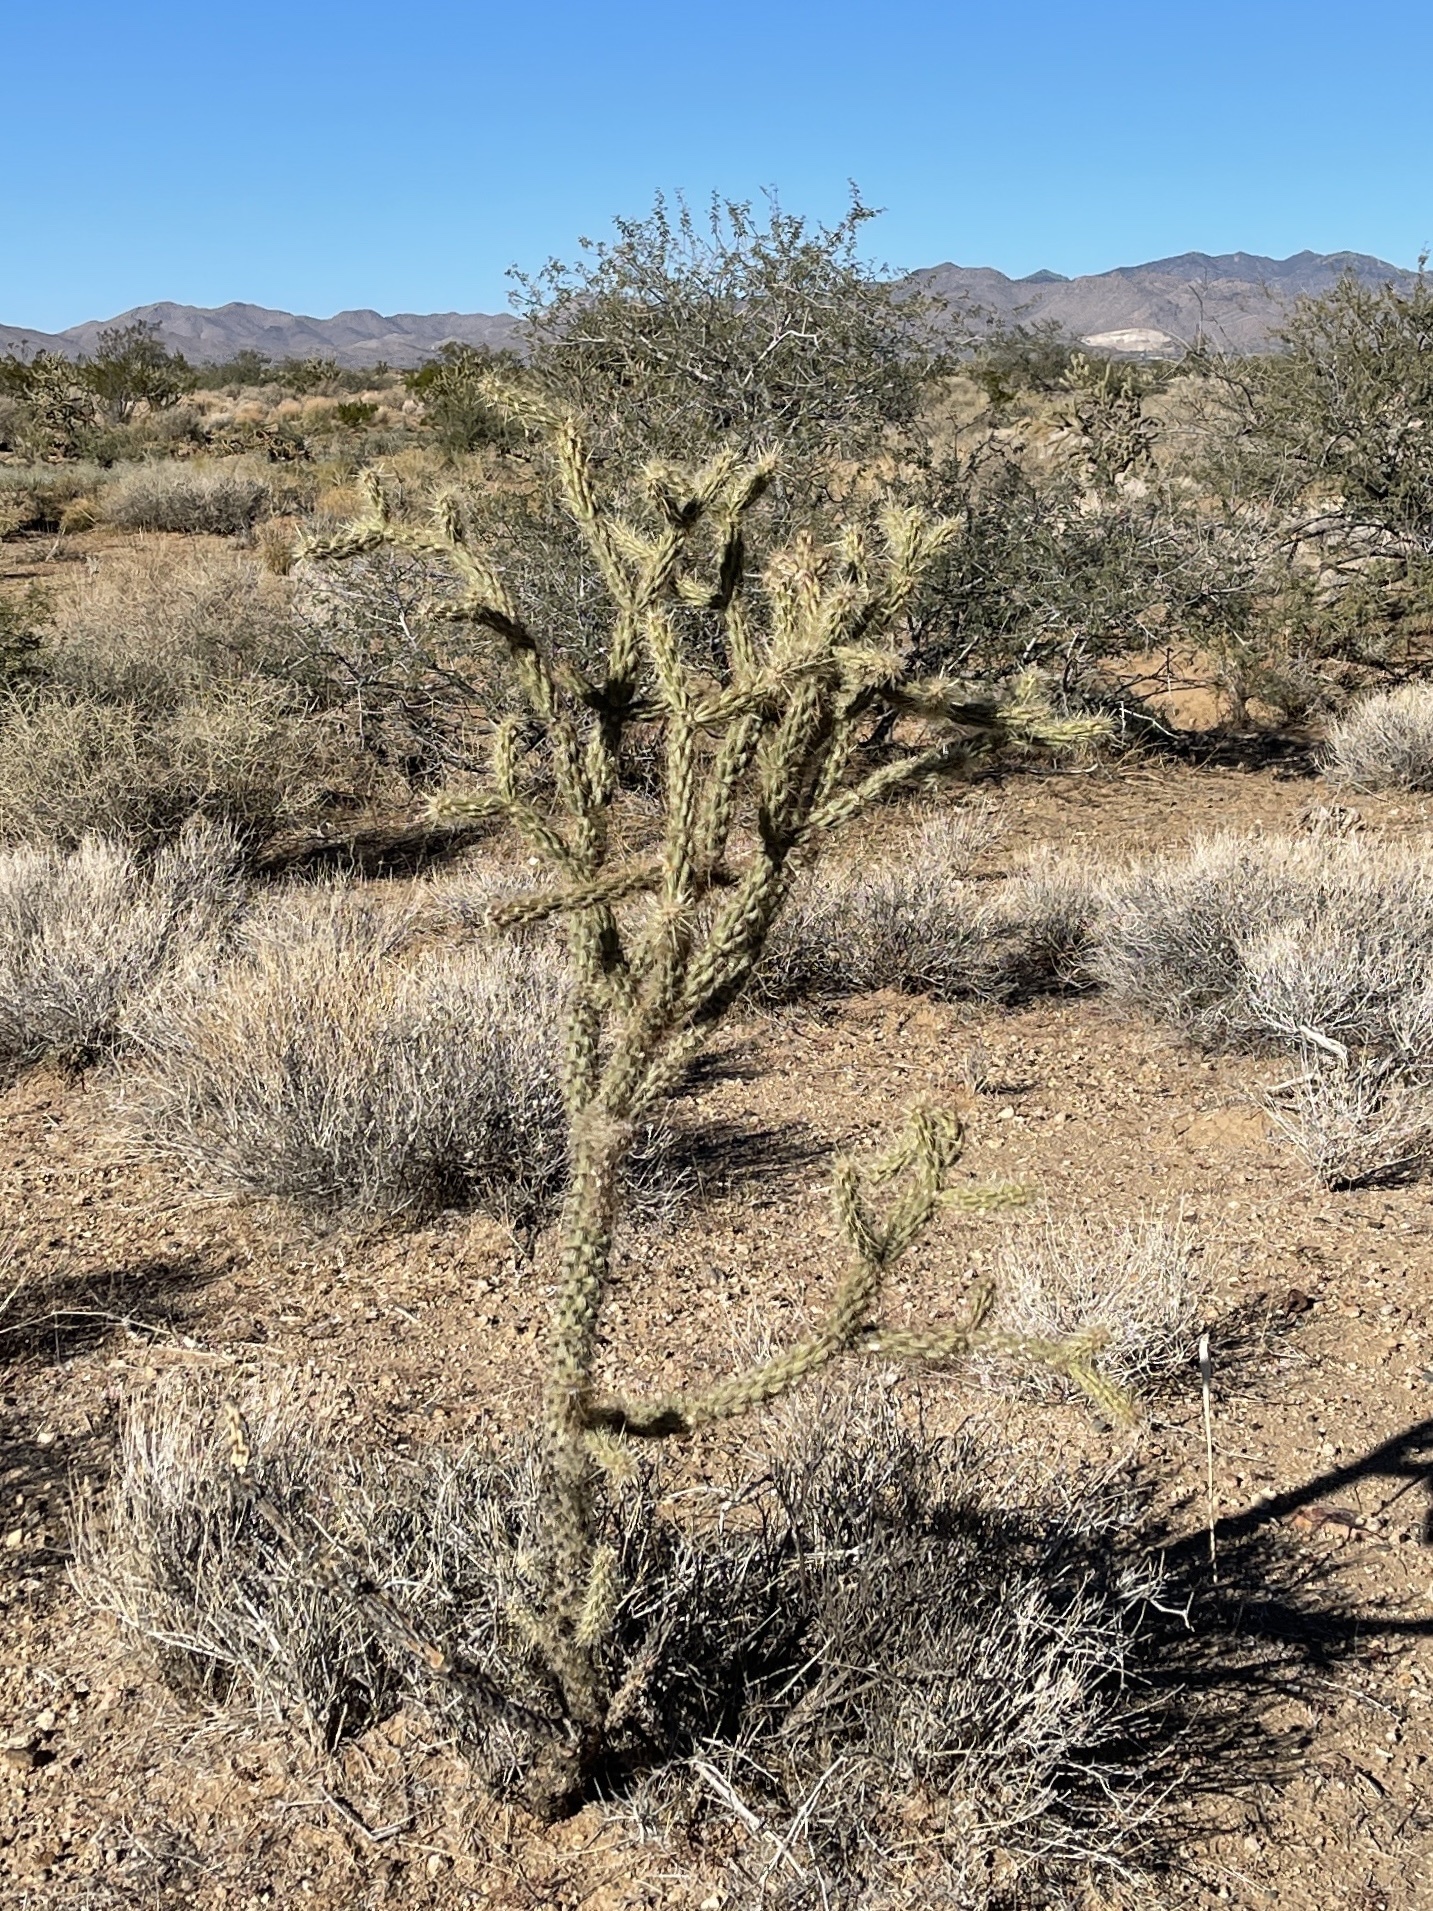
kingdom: Plantae
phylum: Tracheophyta
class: Magnoliopsida
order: Caryophyllales
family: Cactaceae
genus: Cylindropuntia
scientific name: Cylindropuntia acanthocarpa
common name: Buckhorn cholla
